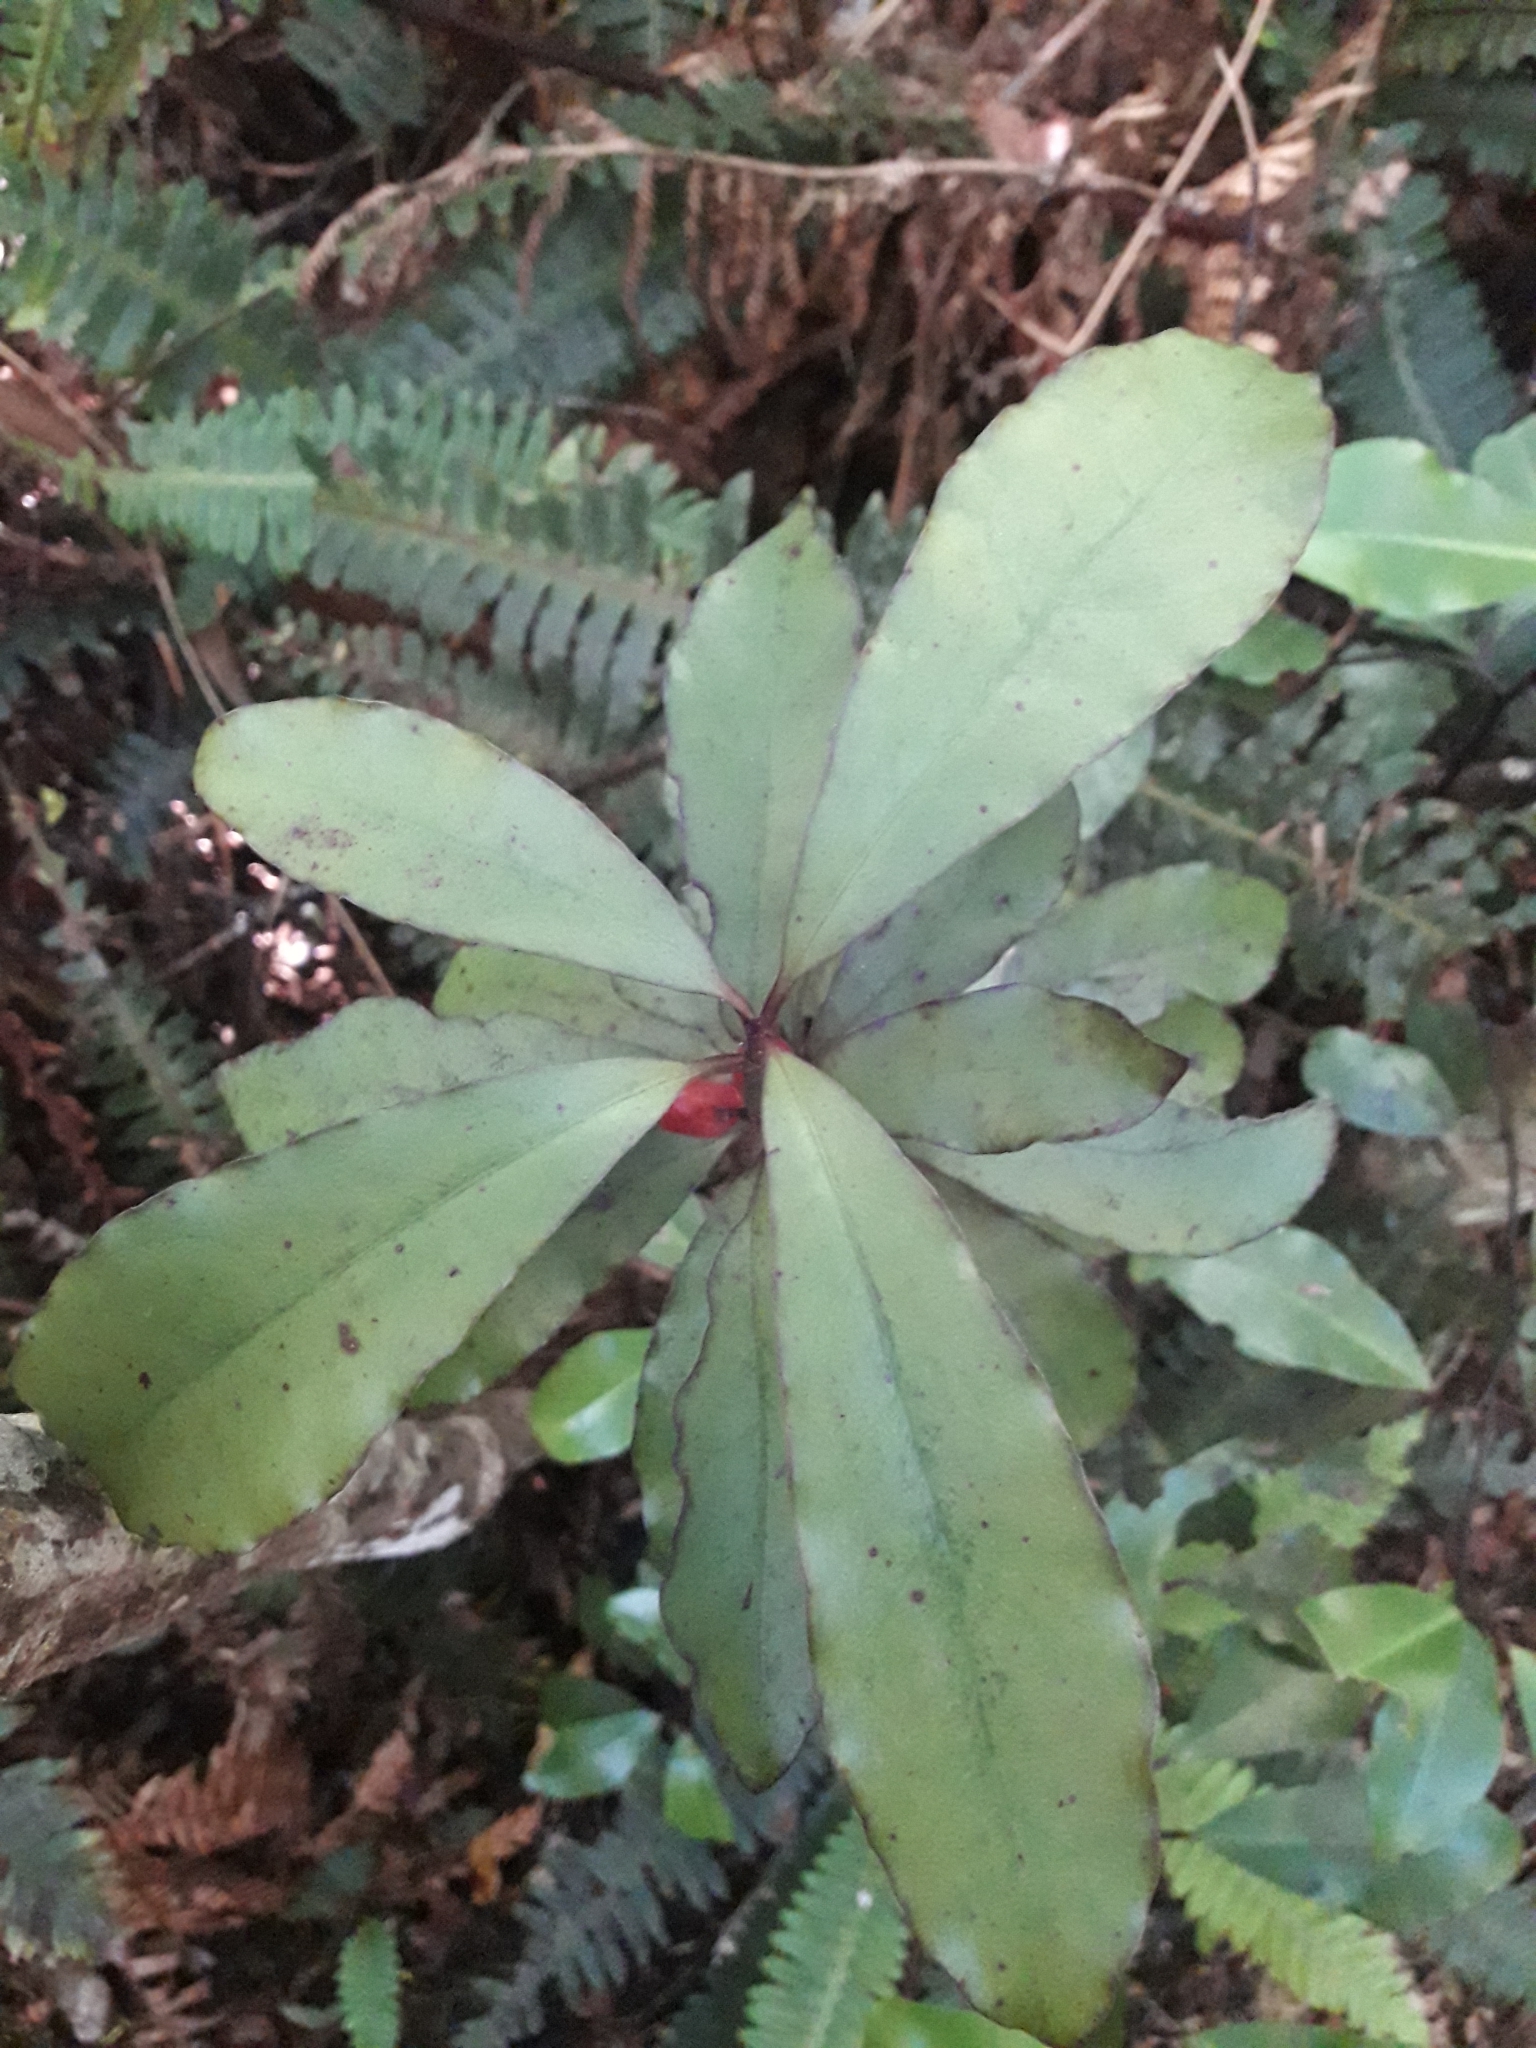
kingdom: Plantae
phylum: Tracheophyta
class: Magnoliopsida
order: Asterales
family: Alseuosmiaceae
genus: Alseuosmia
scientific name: Alseuosmia pusilla
